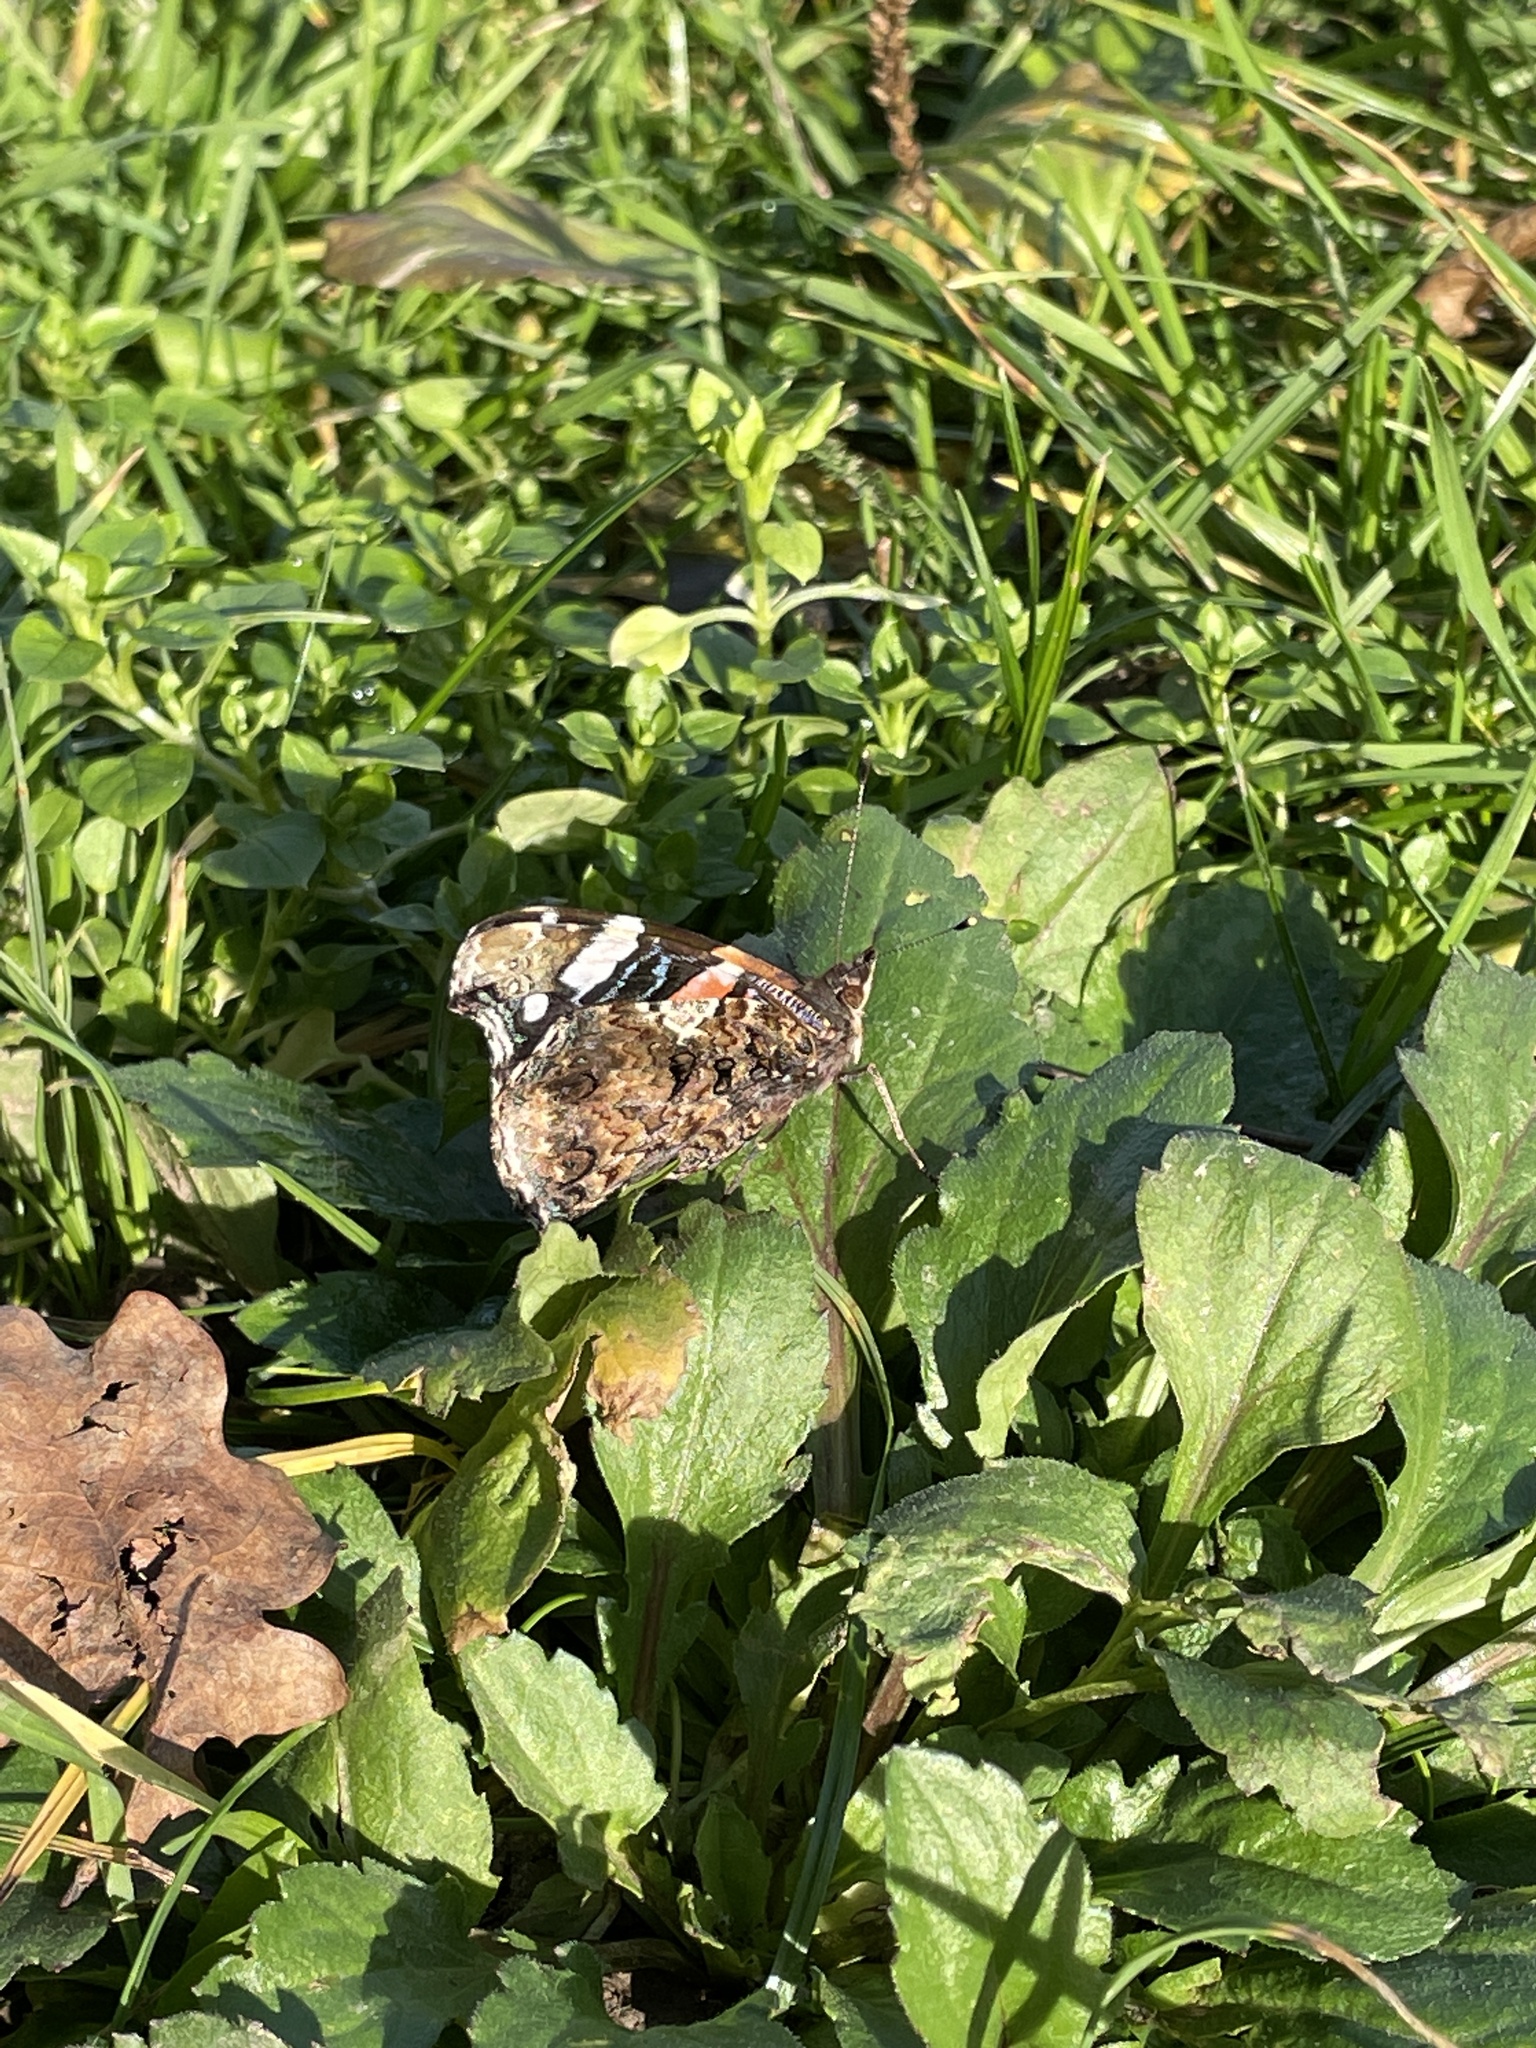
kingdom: Animalia
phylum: Arthropoda
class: Insecta
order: Lepidoptera
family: Nymphalidae
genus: Vanessa
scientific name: Vanessa atalanta
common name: Red admiral
